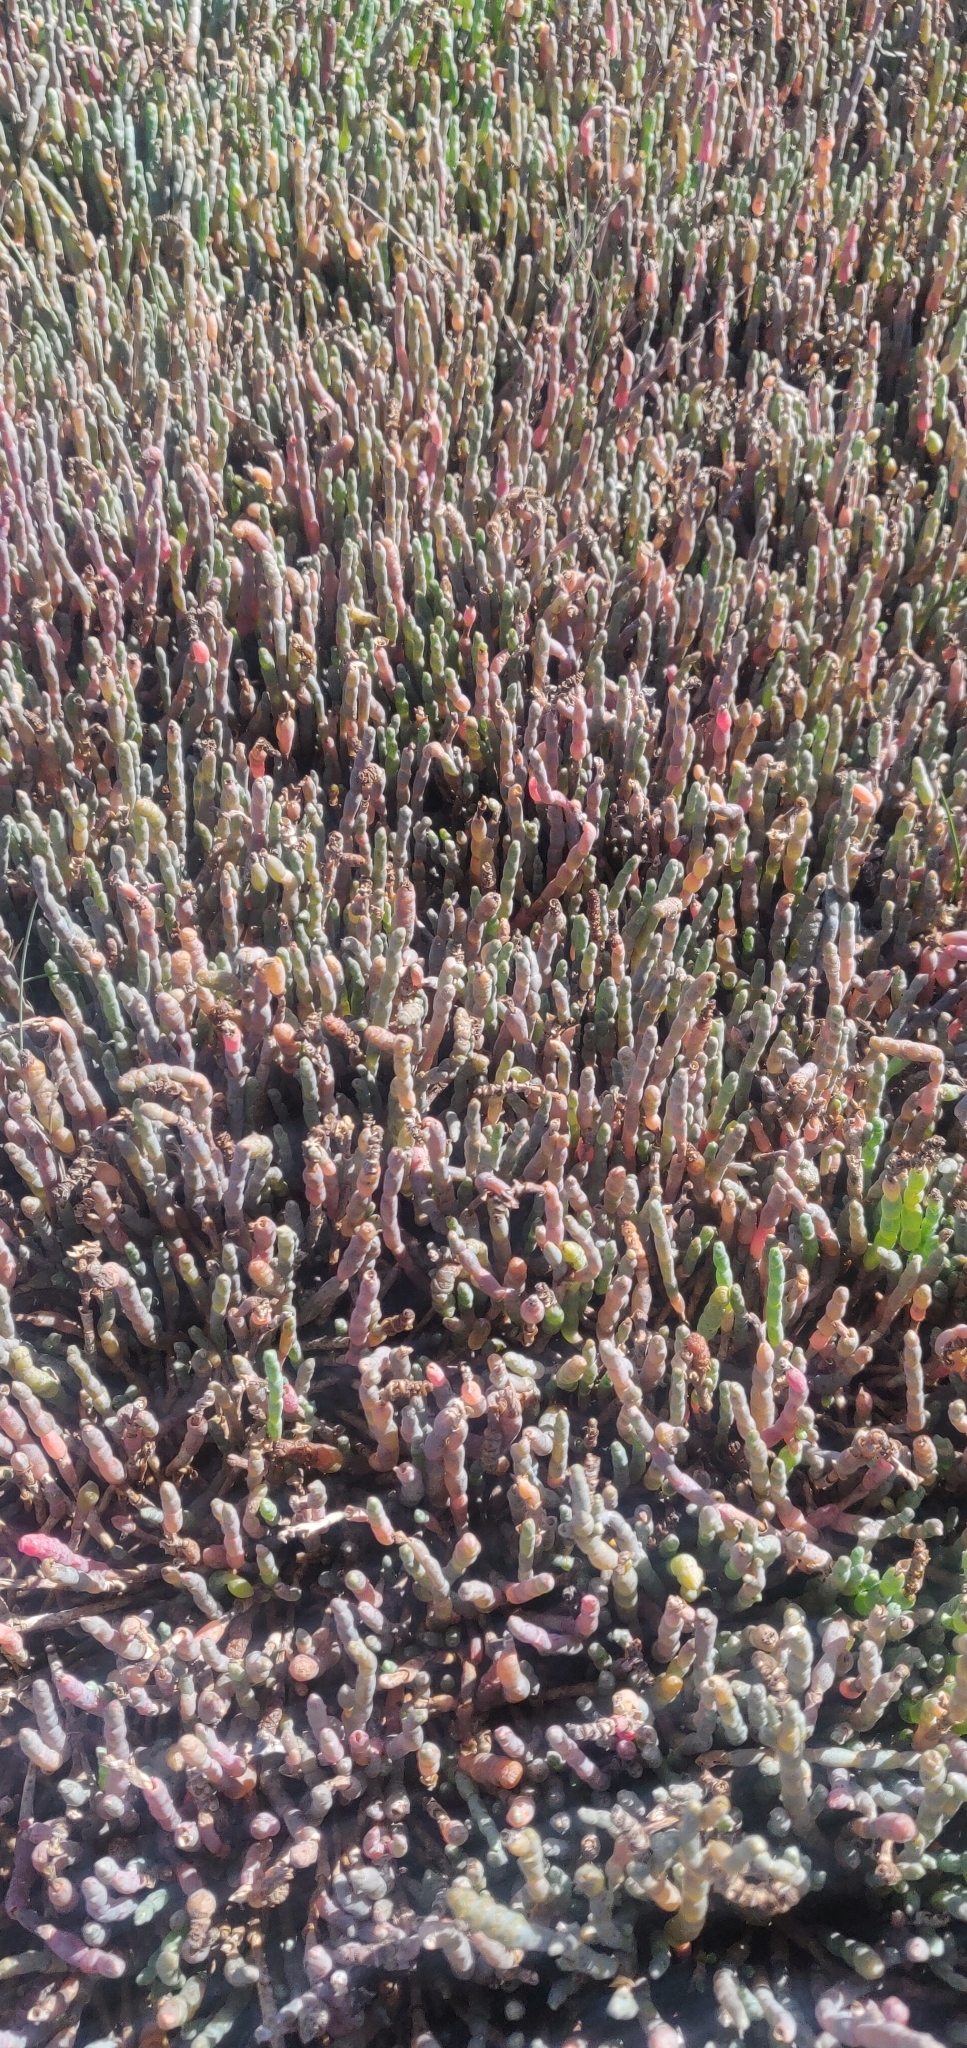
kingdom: Plantae
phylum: Tracheophyta
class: Magnoliopsida
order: Caryophyllales
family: Amaranthaceae
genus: Salicornia
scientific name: Salicornia quinqueflora
